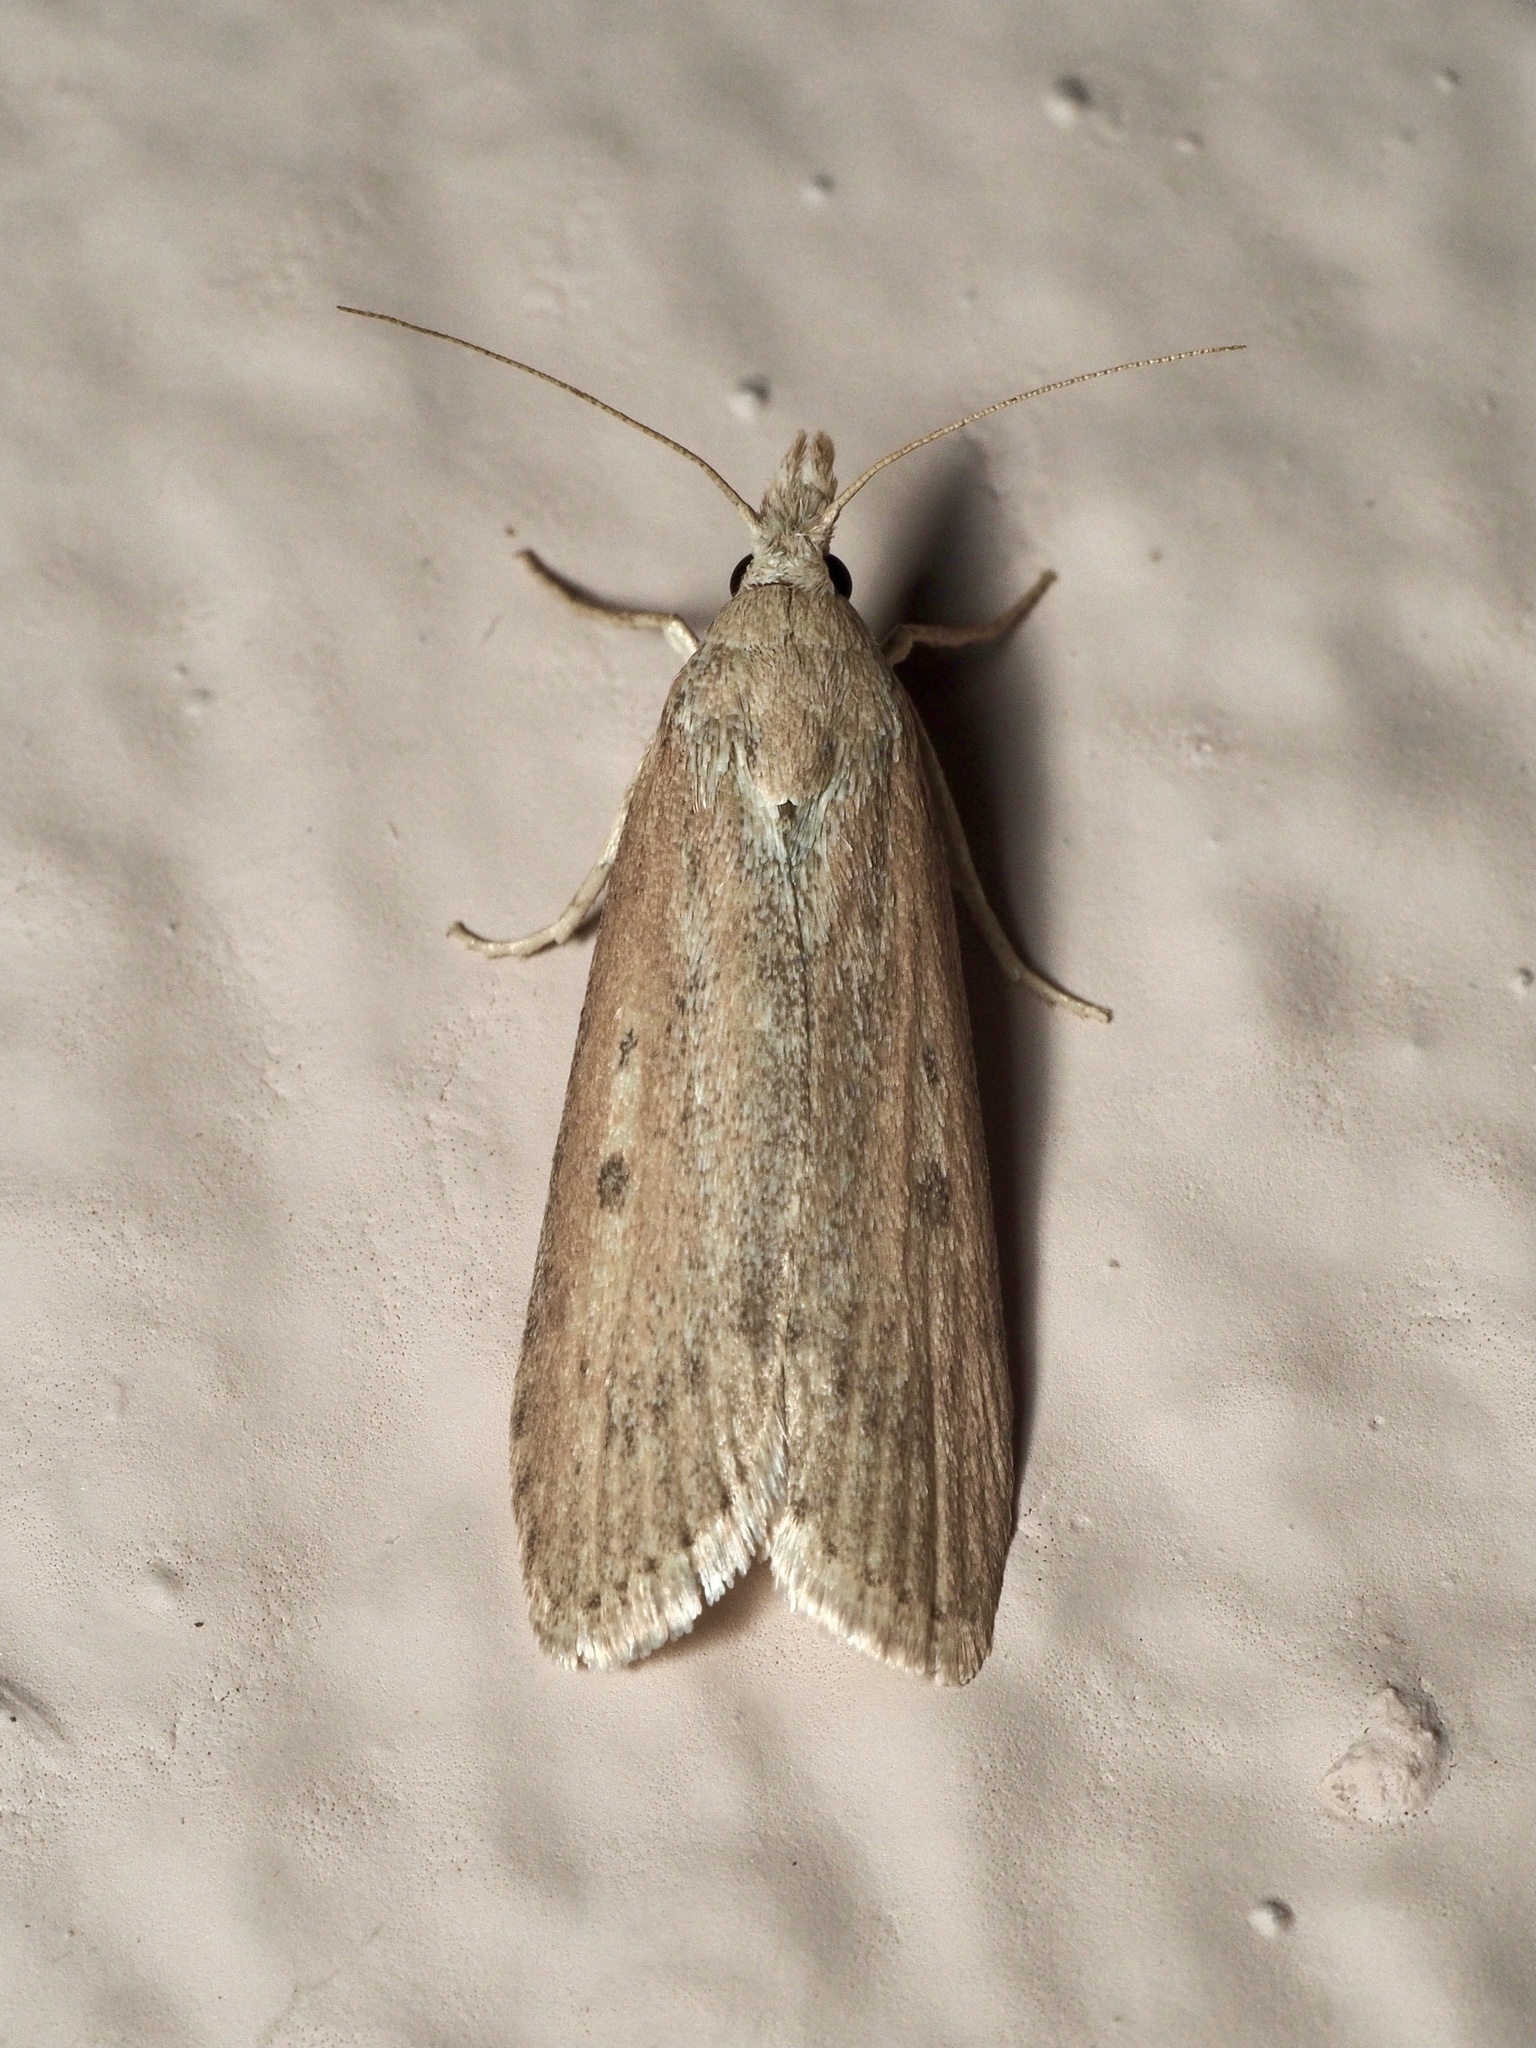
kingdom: Animalia
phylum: Arthropoda
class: Insecta
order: Lepidoptera
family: Pyralidae
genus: Lamoria
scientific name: Lamoria anella
